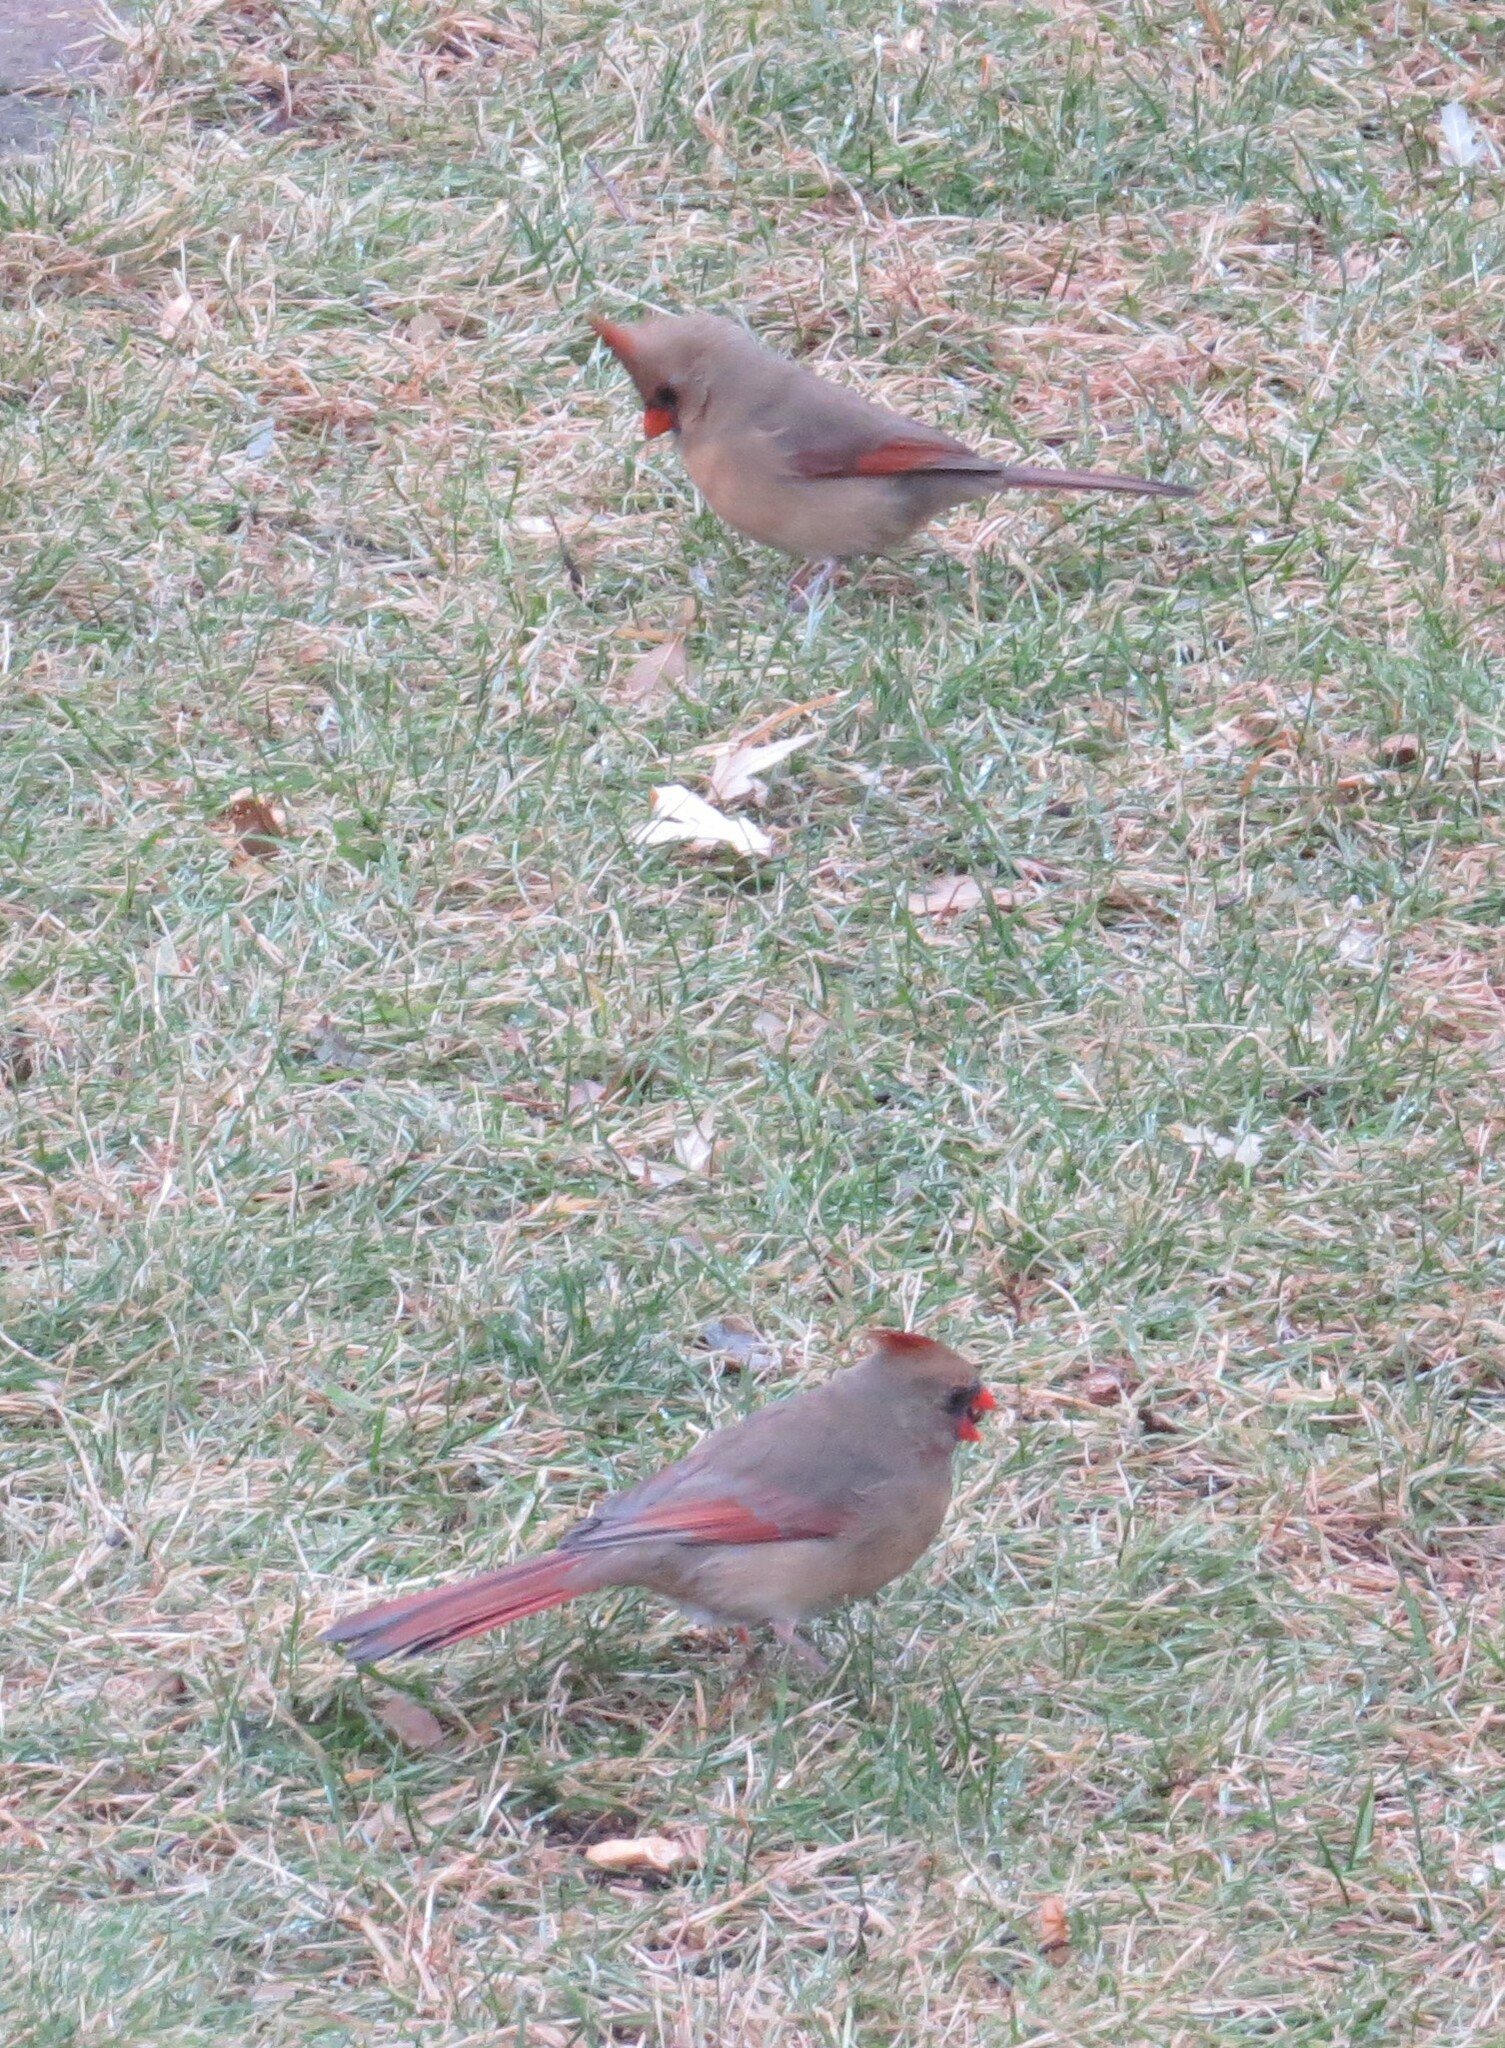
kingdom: Animalia
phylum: Chordata
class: Aves
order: Passeriformes
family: Cardinalidae
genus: Cardinalis
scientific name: Cardinalis cardinalis
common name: Northern cardinal
